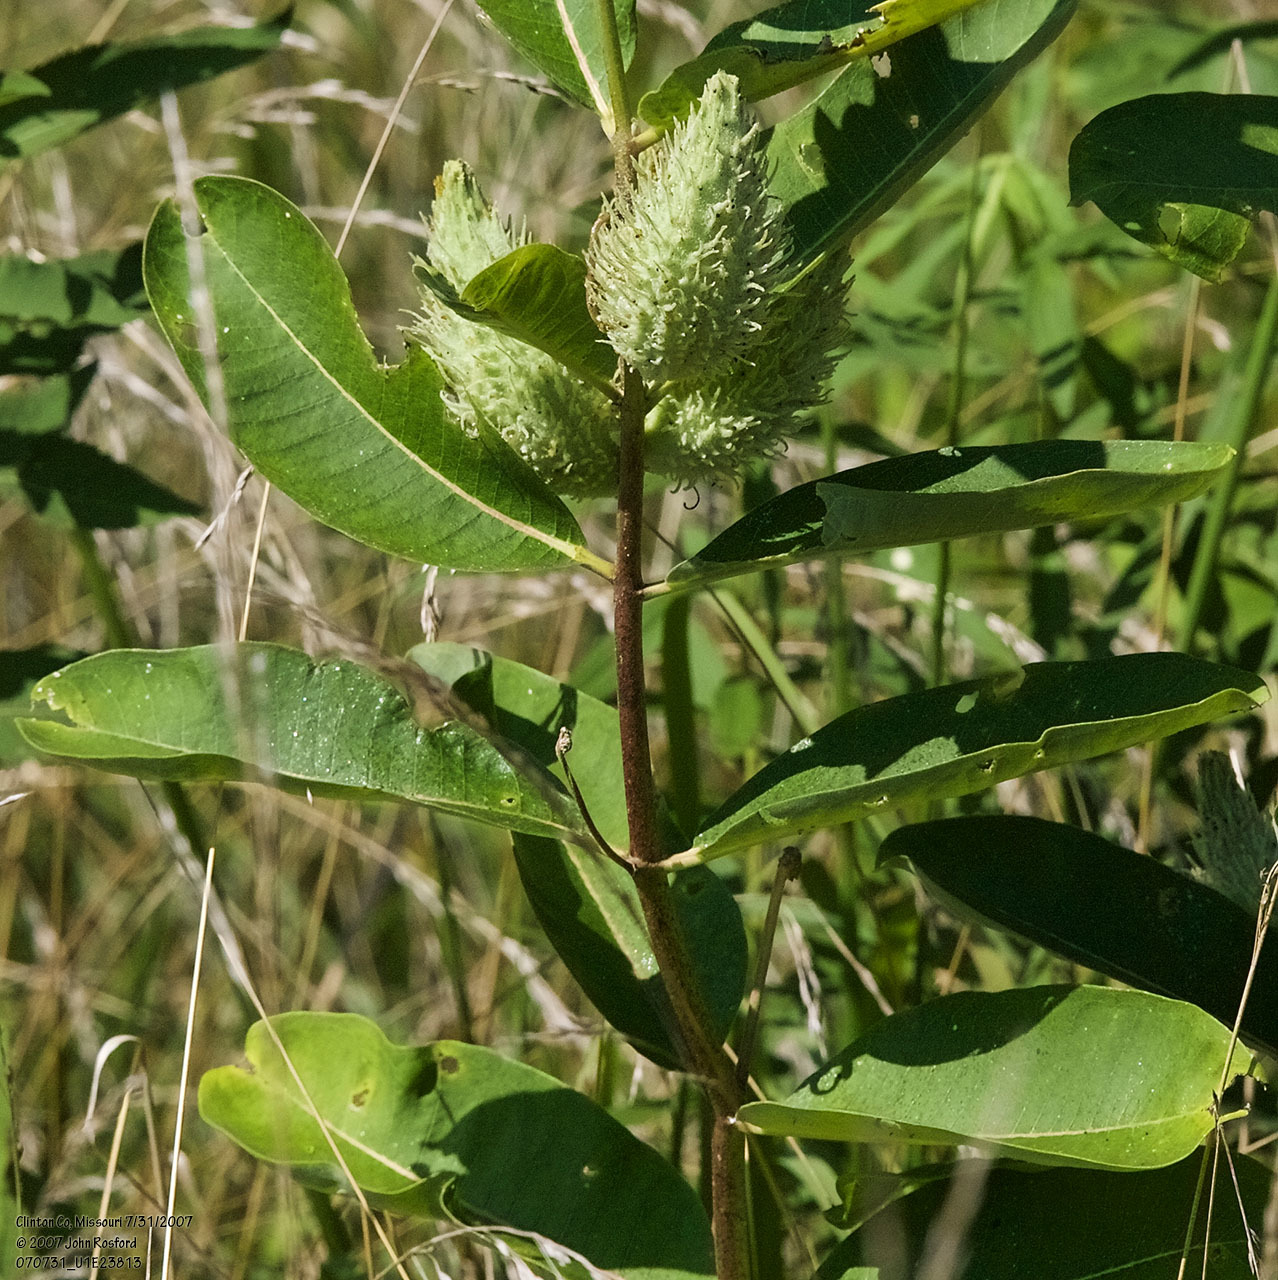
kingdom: Plantae
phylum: Tracheophyta
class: Magnoliopsida
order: Gentianales
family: Apocynaceae
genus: Asclepias
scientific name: Asclepias syriaca
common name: Common milkweed
